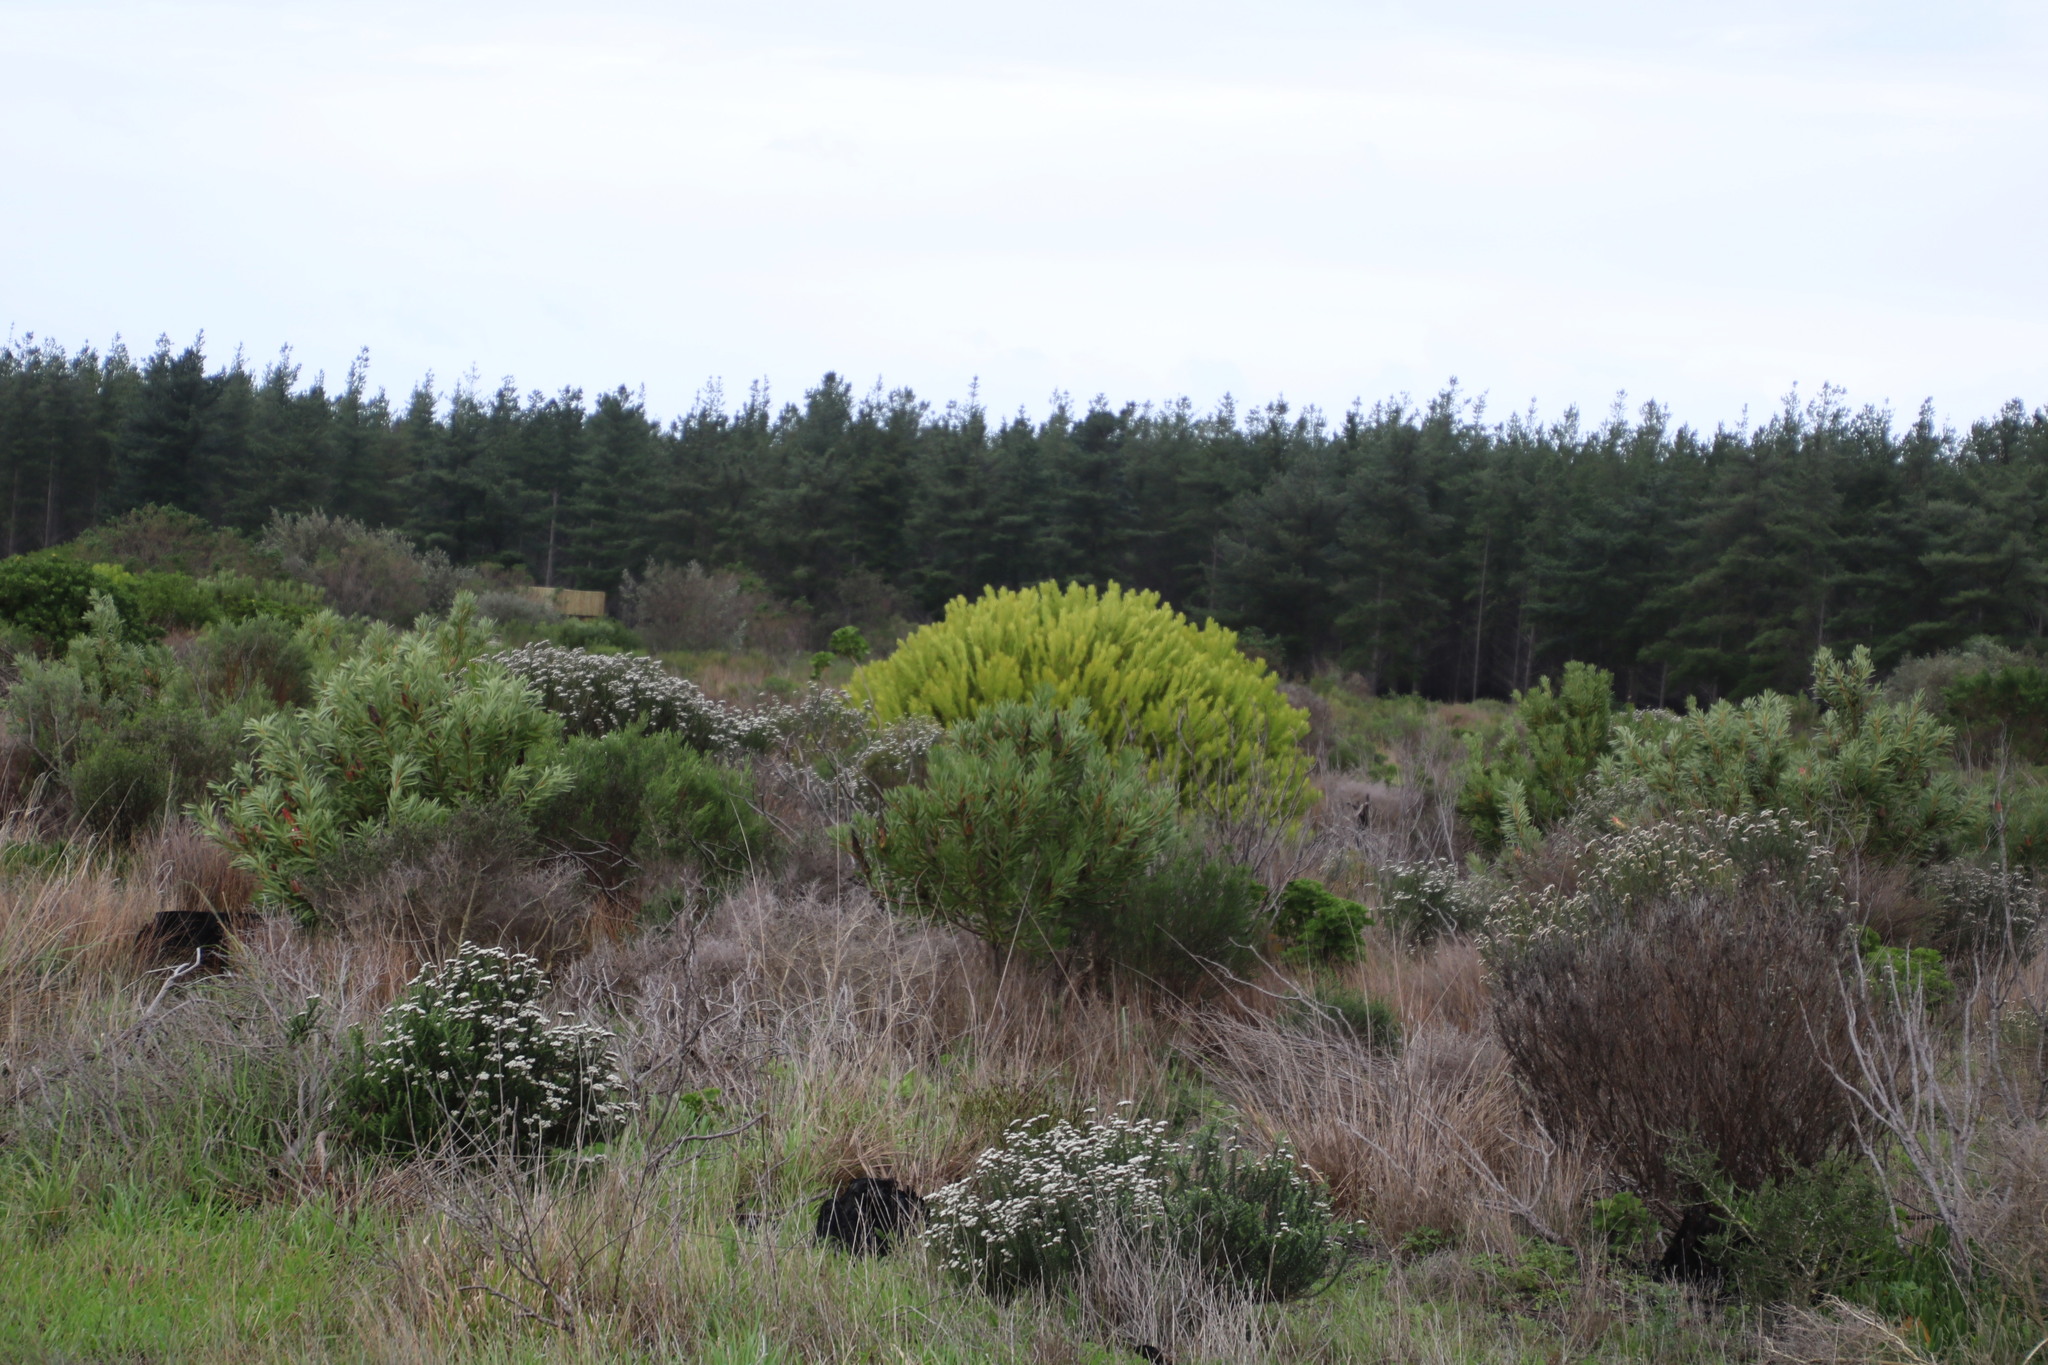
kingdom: Plantae
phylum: Tracheophyta
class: Magnoliopsida
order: Proteales
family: Proteaceae
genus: Leucadendron
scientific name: Leucadendron laureolum
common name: Golden sunshinebush
